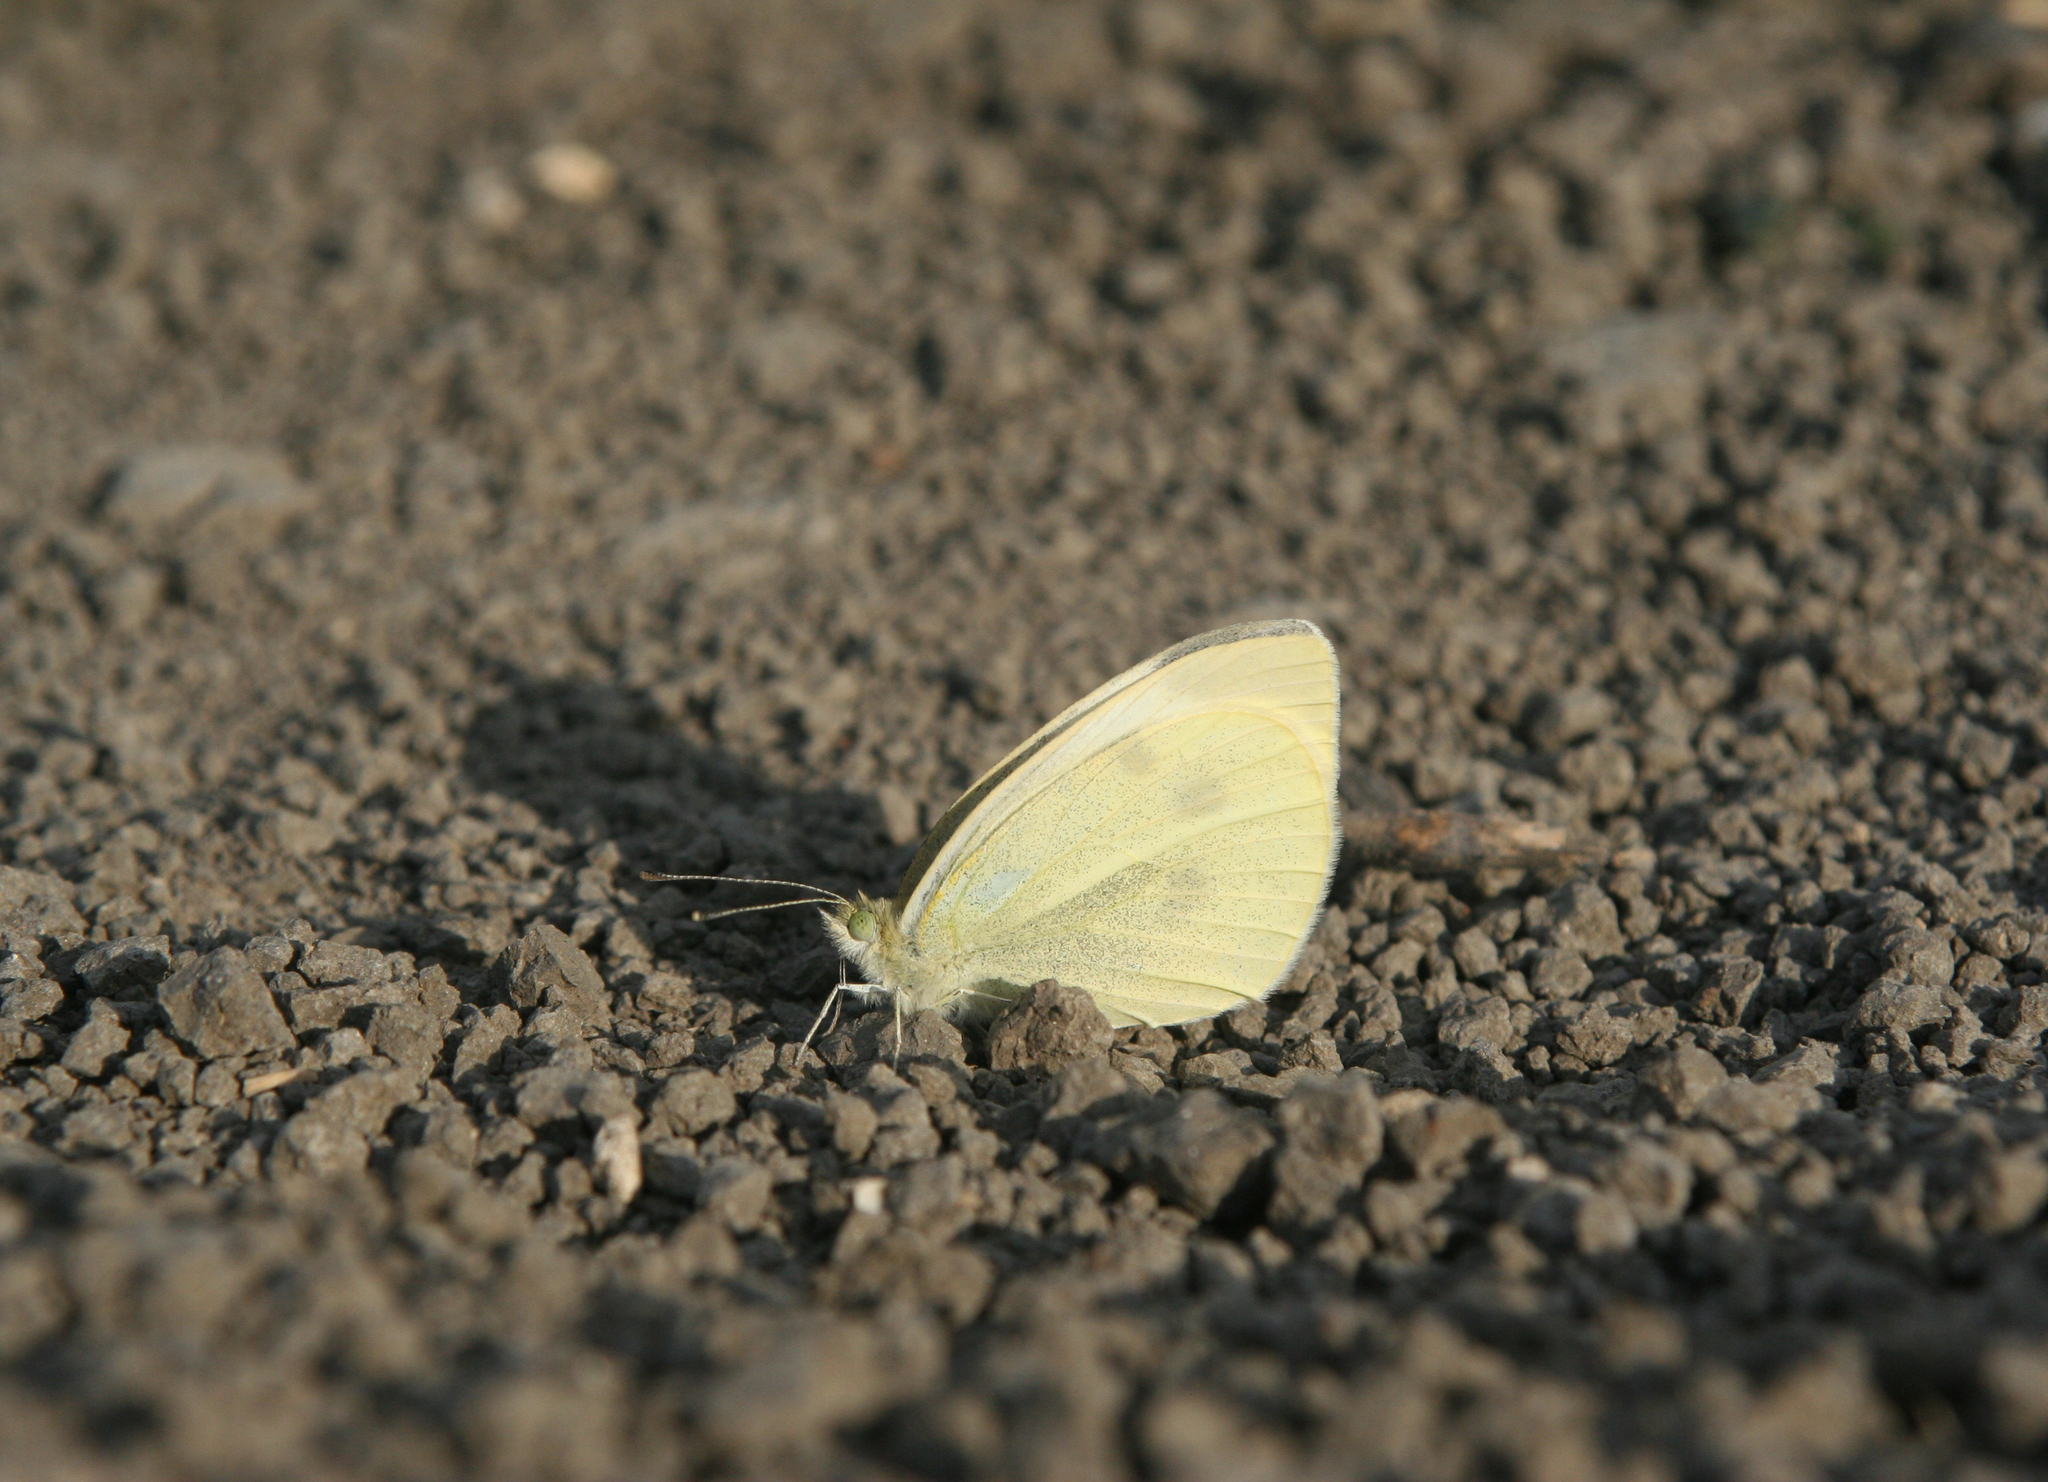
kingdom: Animalia
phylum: Arthropoda
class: Insecta
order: Lepidoptera
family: Pieridae
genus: Pieris
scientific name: Pieris rapae
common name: Small white
